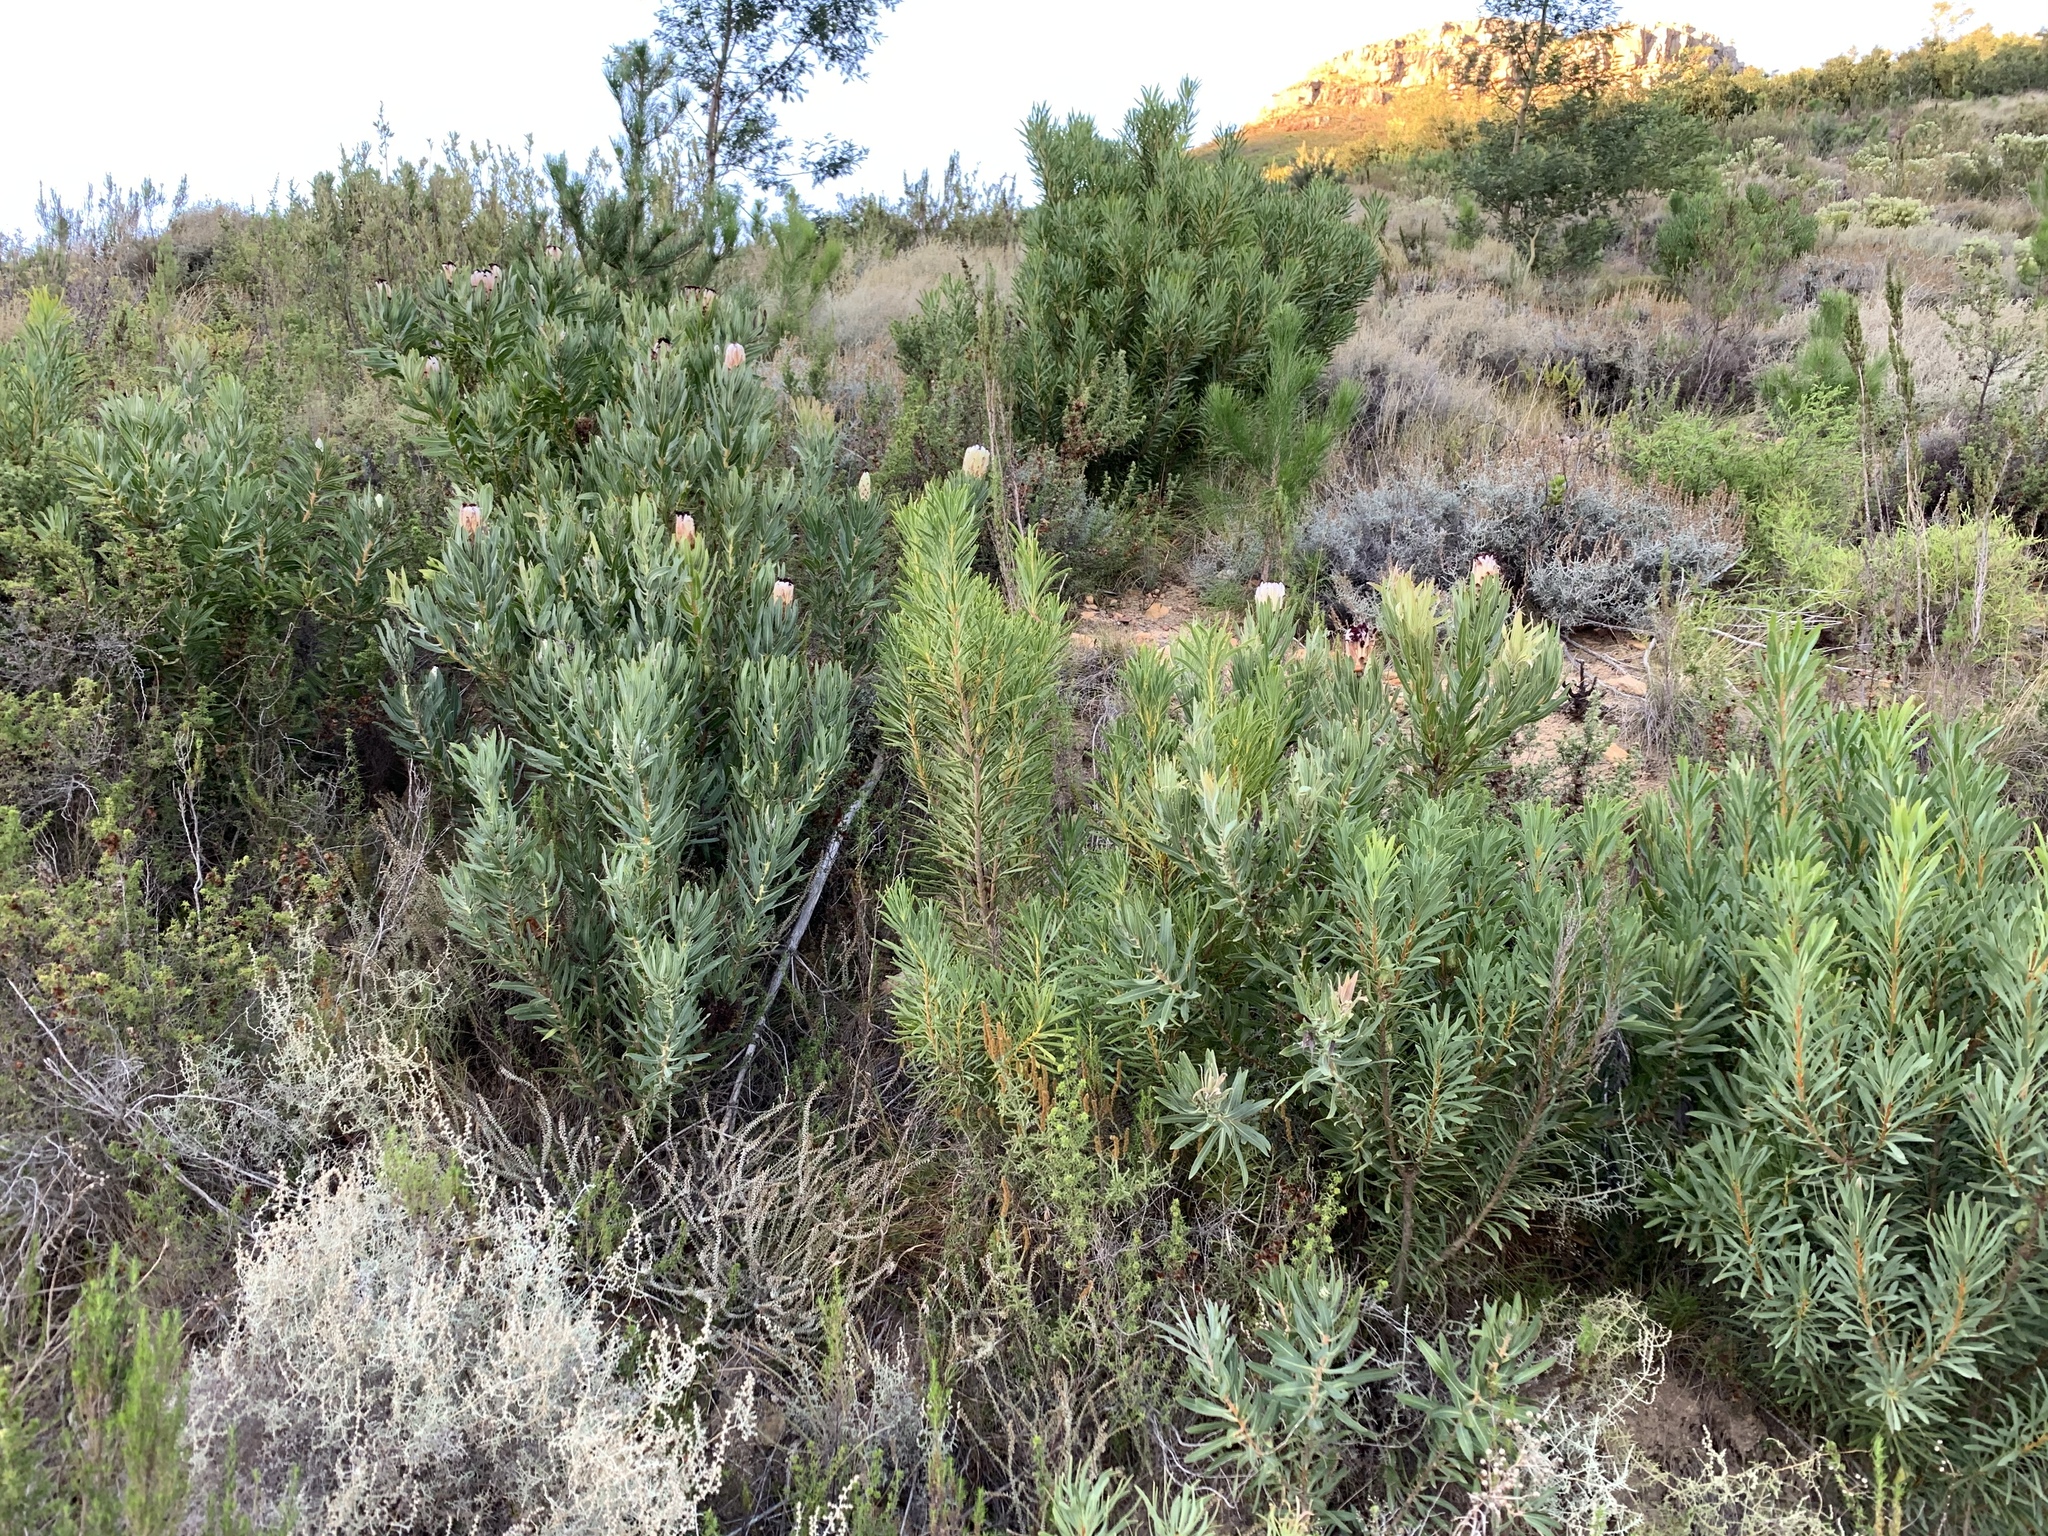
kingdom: Plantae
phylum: Tracheophyta
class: Magnoliopsida
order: Proteales
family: Proteaceae
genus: Protea
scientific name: Protea neriifolia
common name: Blue sugarbush
